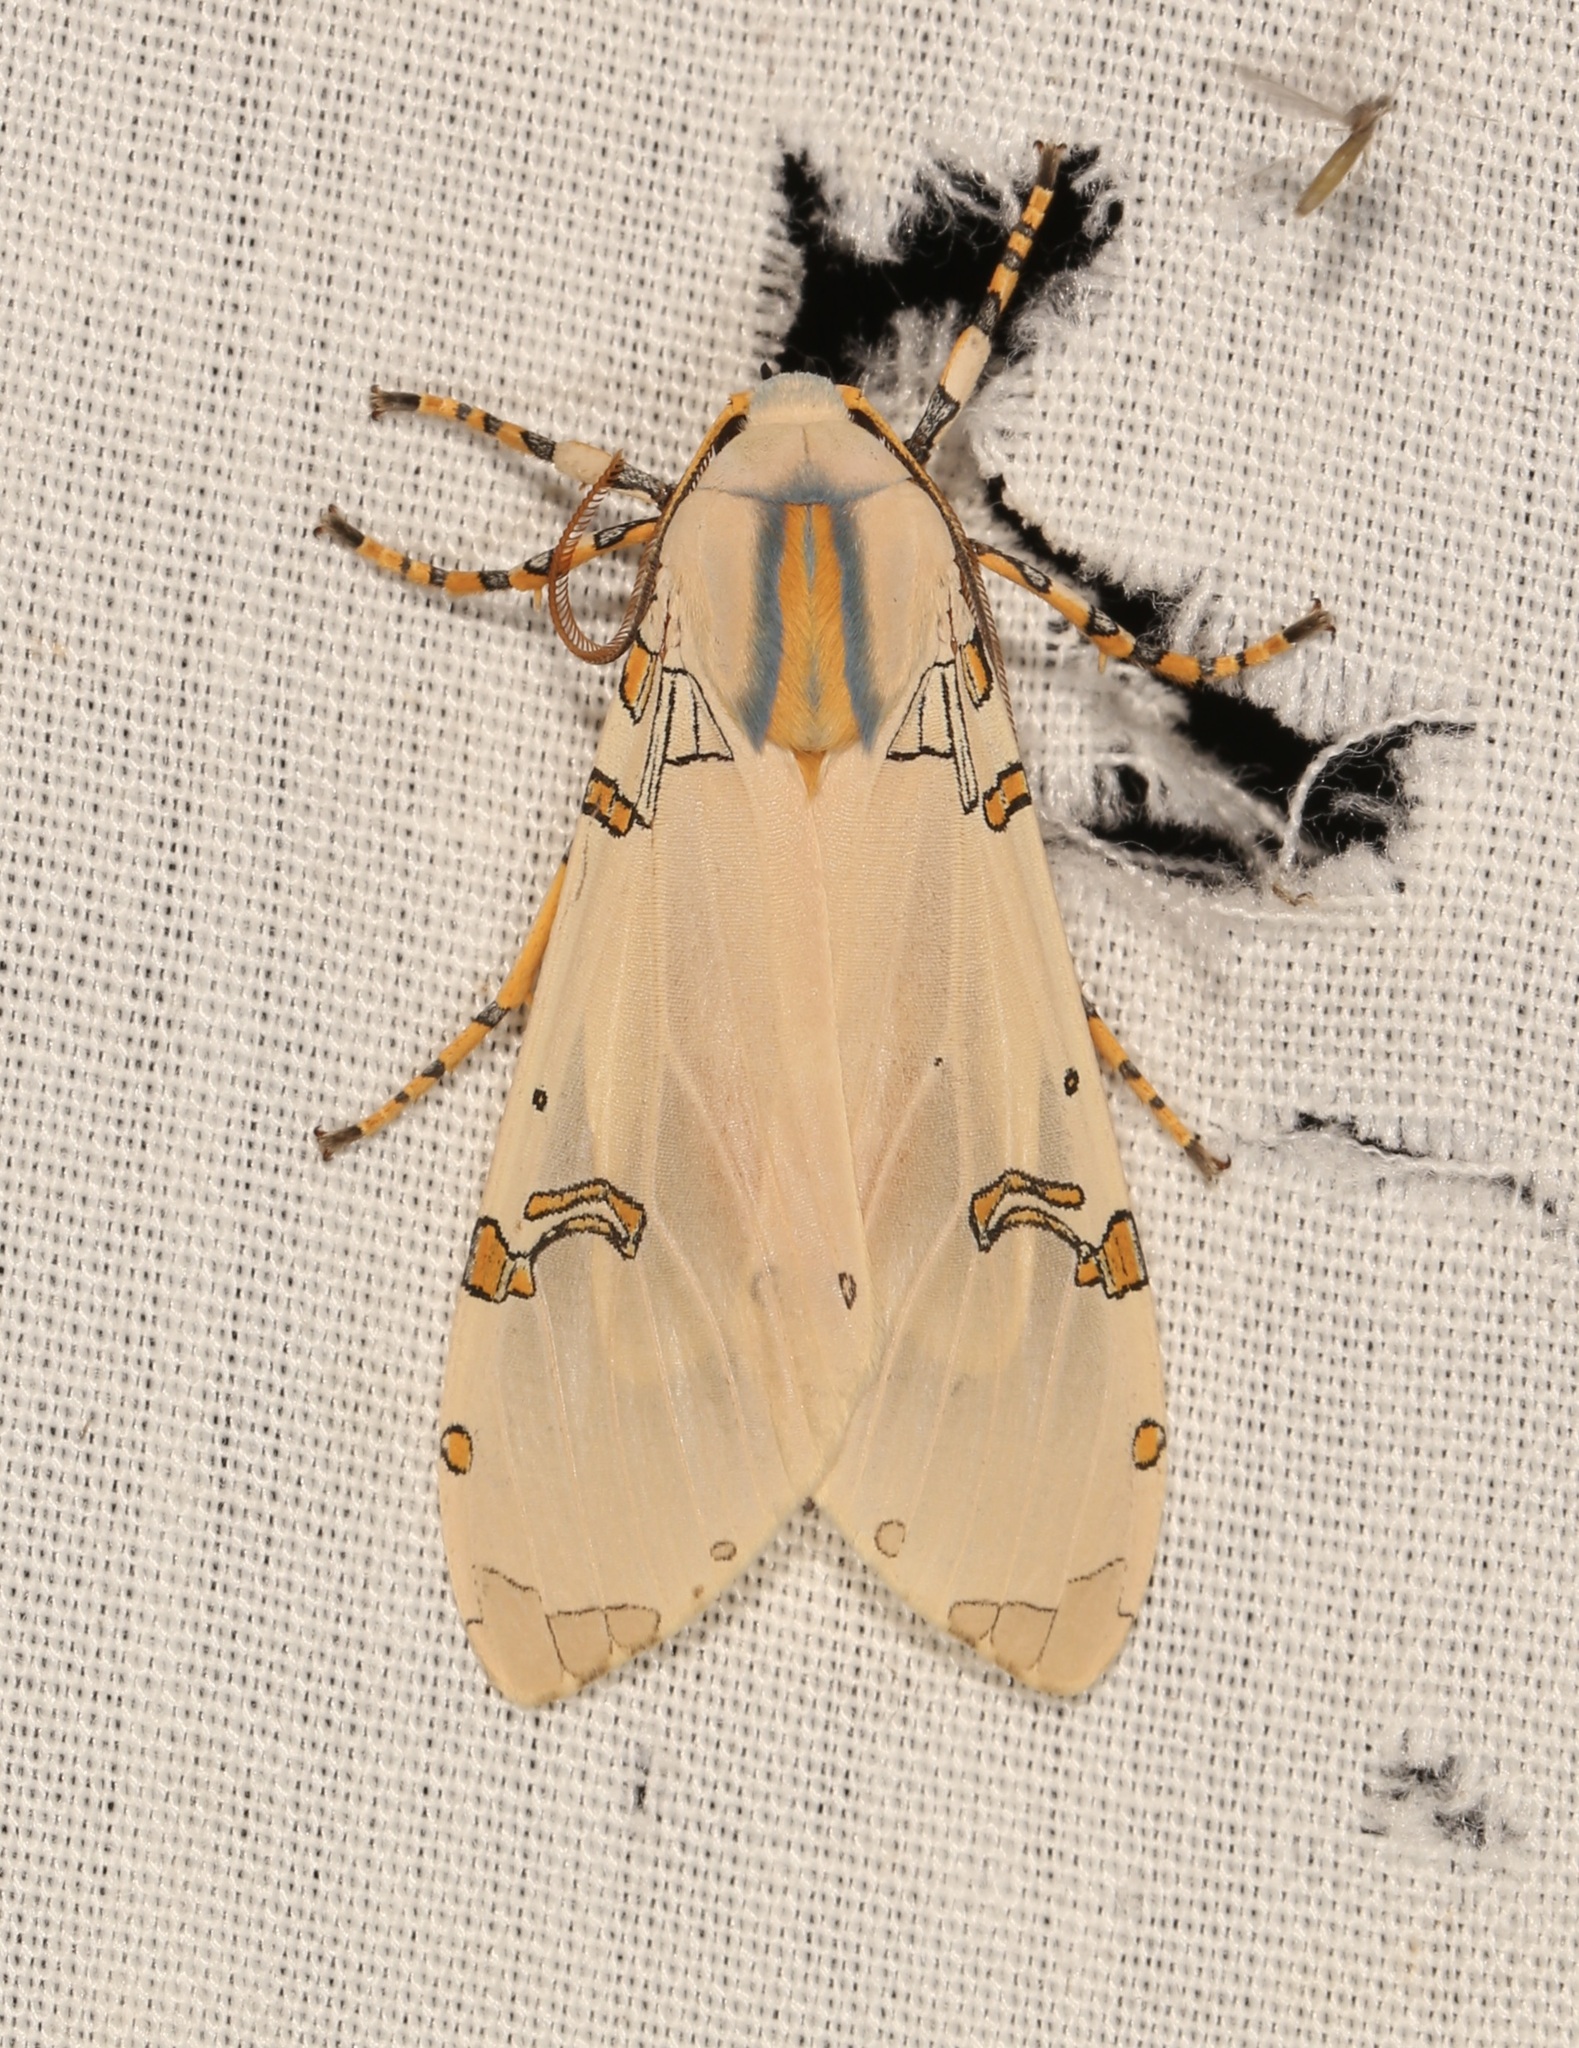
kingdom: Animalia
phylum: Arthropoda
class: Insecta
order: Lepidoptera
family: Erebidae
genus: Halysidota
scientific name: Halysidota davisii
